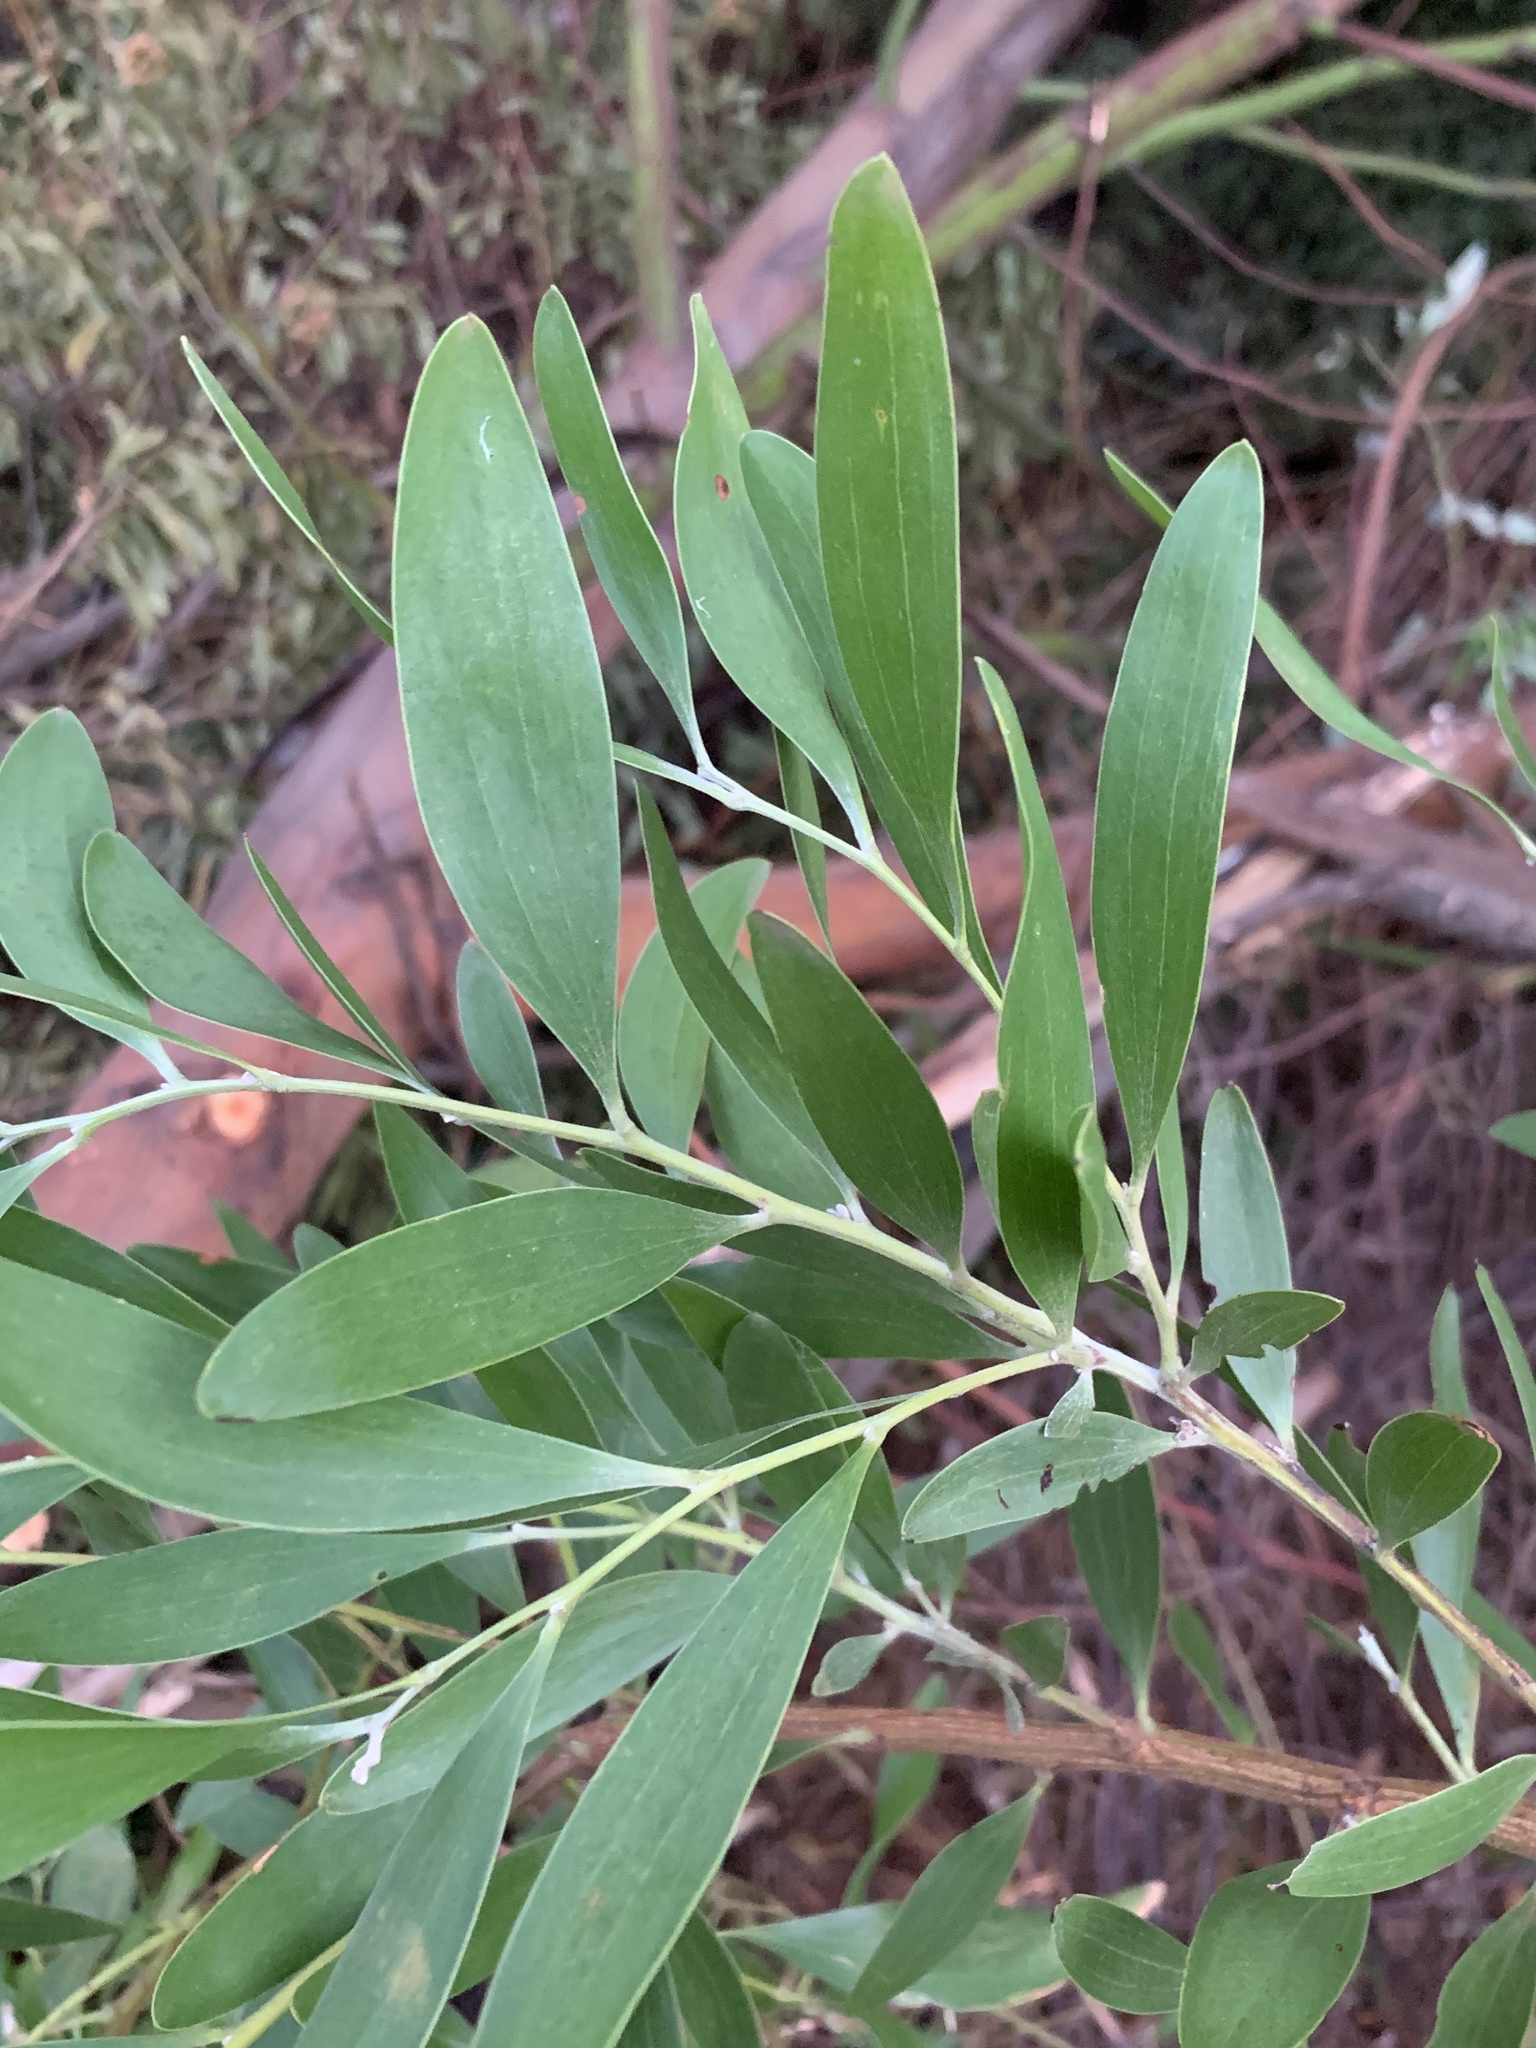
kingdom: Plantae
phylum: Tracheophyta
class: Magnoliopsida
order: Fabales
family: Fabaceae
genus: Acacia
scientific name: Acacia melanoxylon
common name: Blackwood
